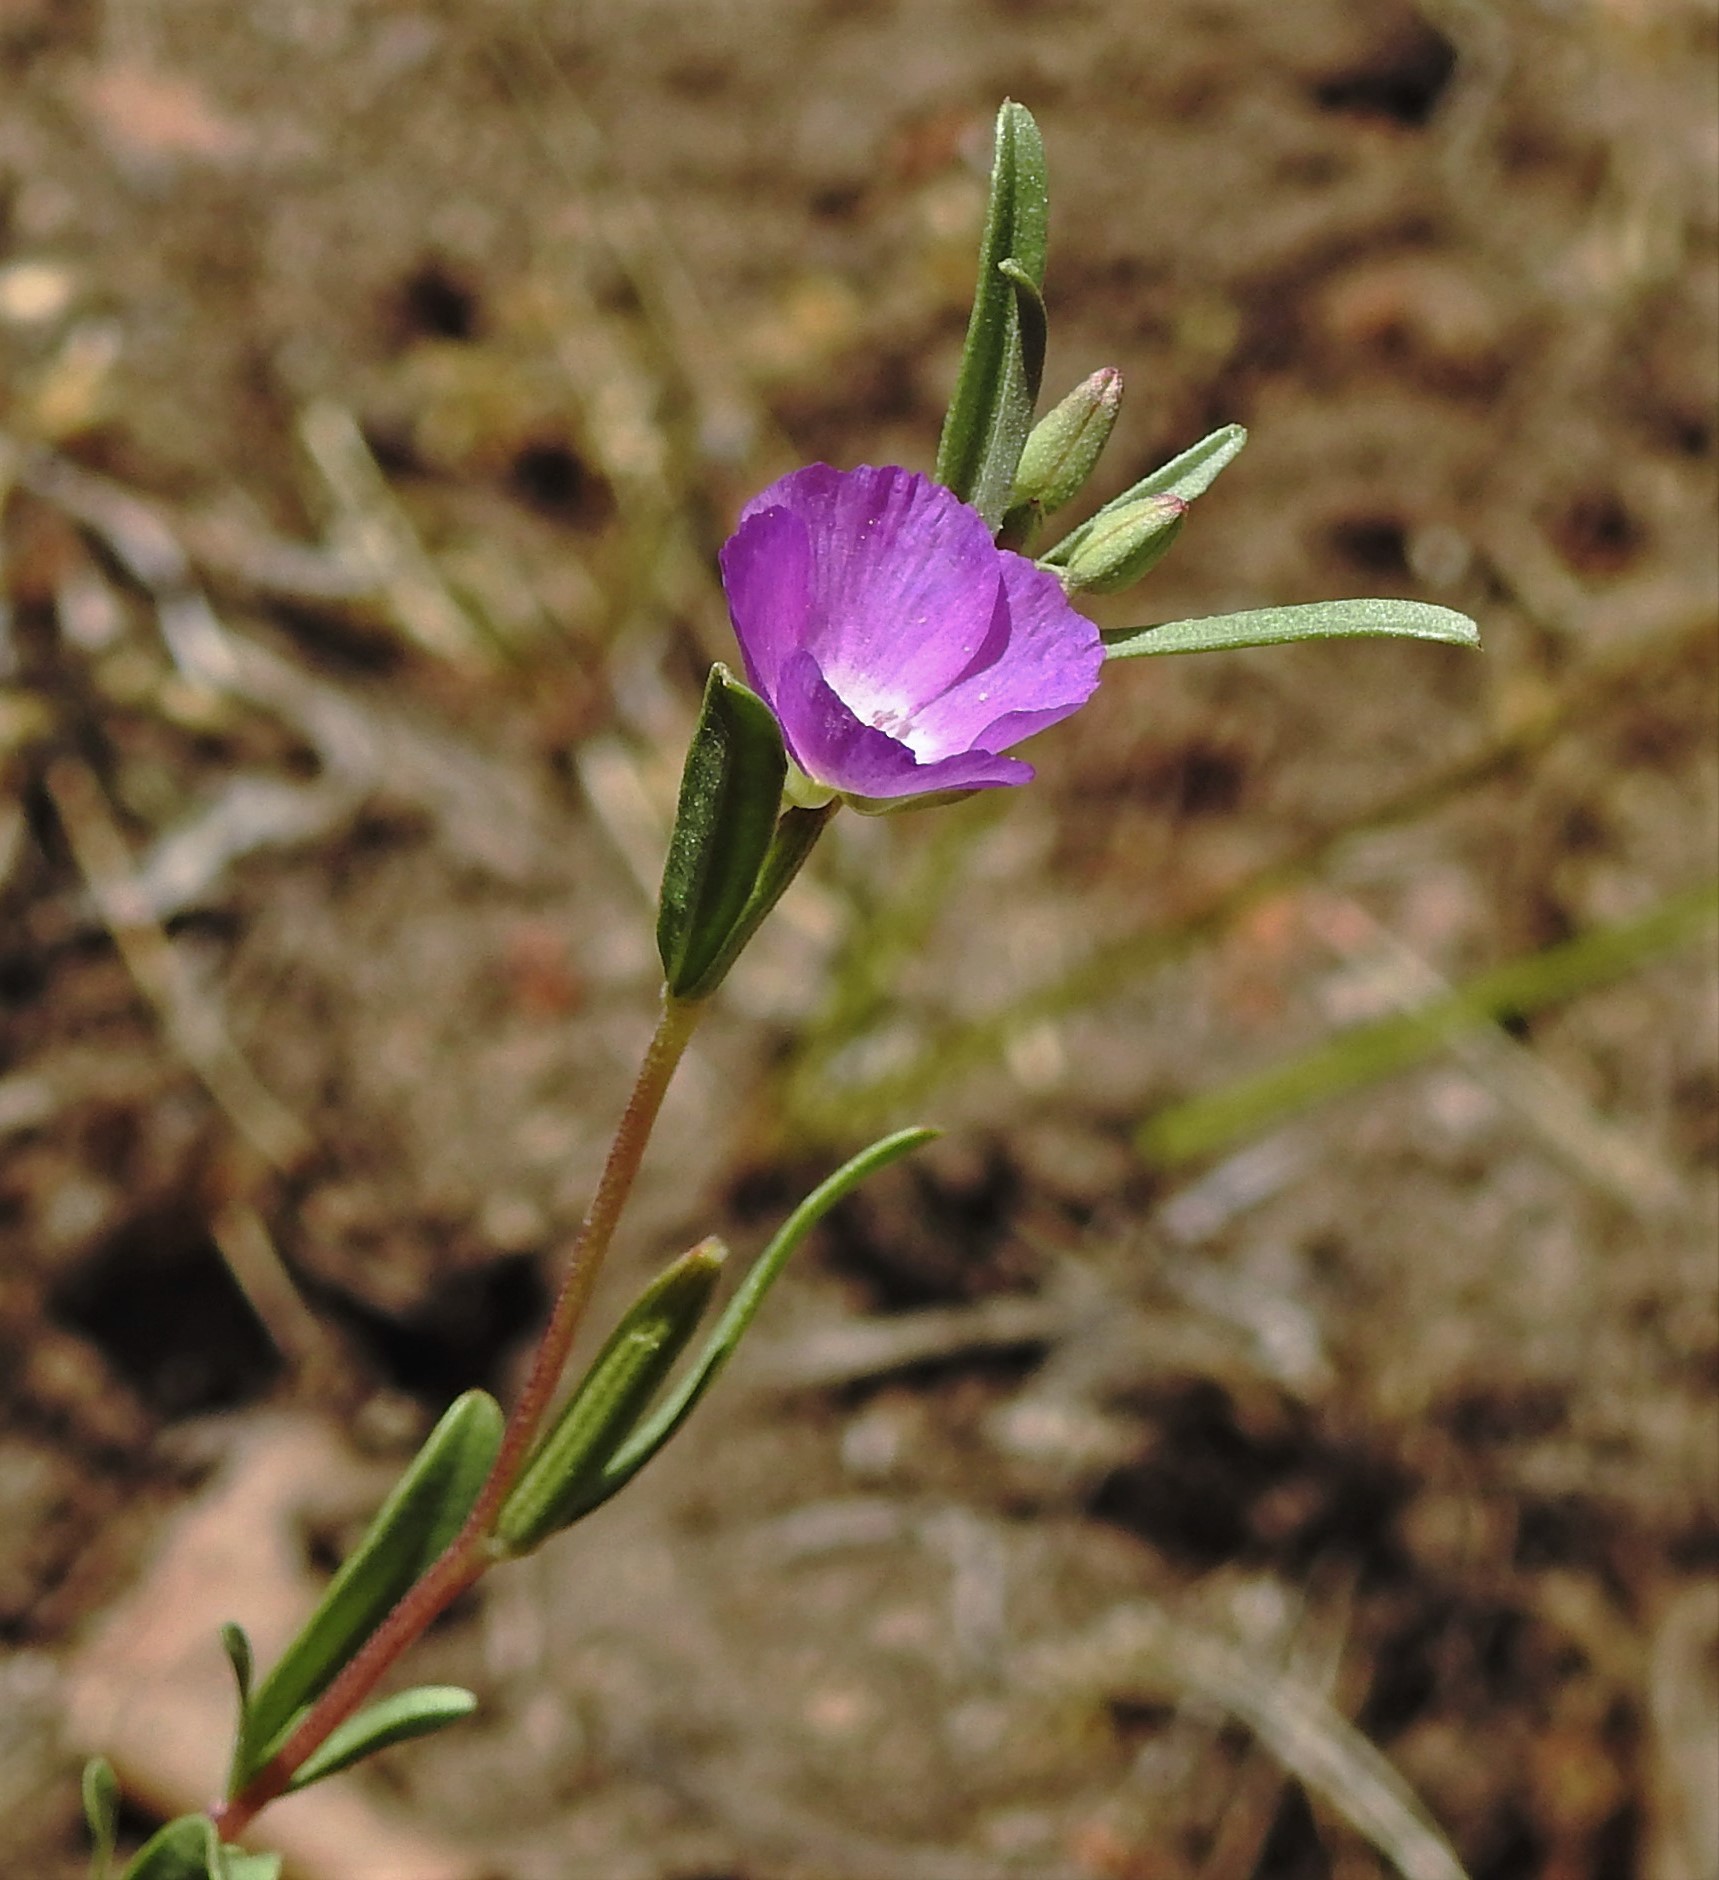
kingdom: Plantae
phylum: Tracheophyta
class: Magnoliopsida
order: Myrtales
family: Onagraceae
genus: Clarkia
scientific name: Clarkia tenella
